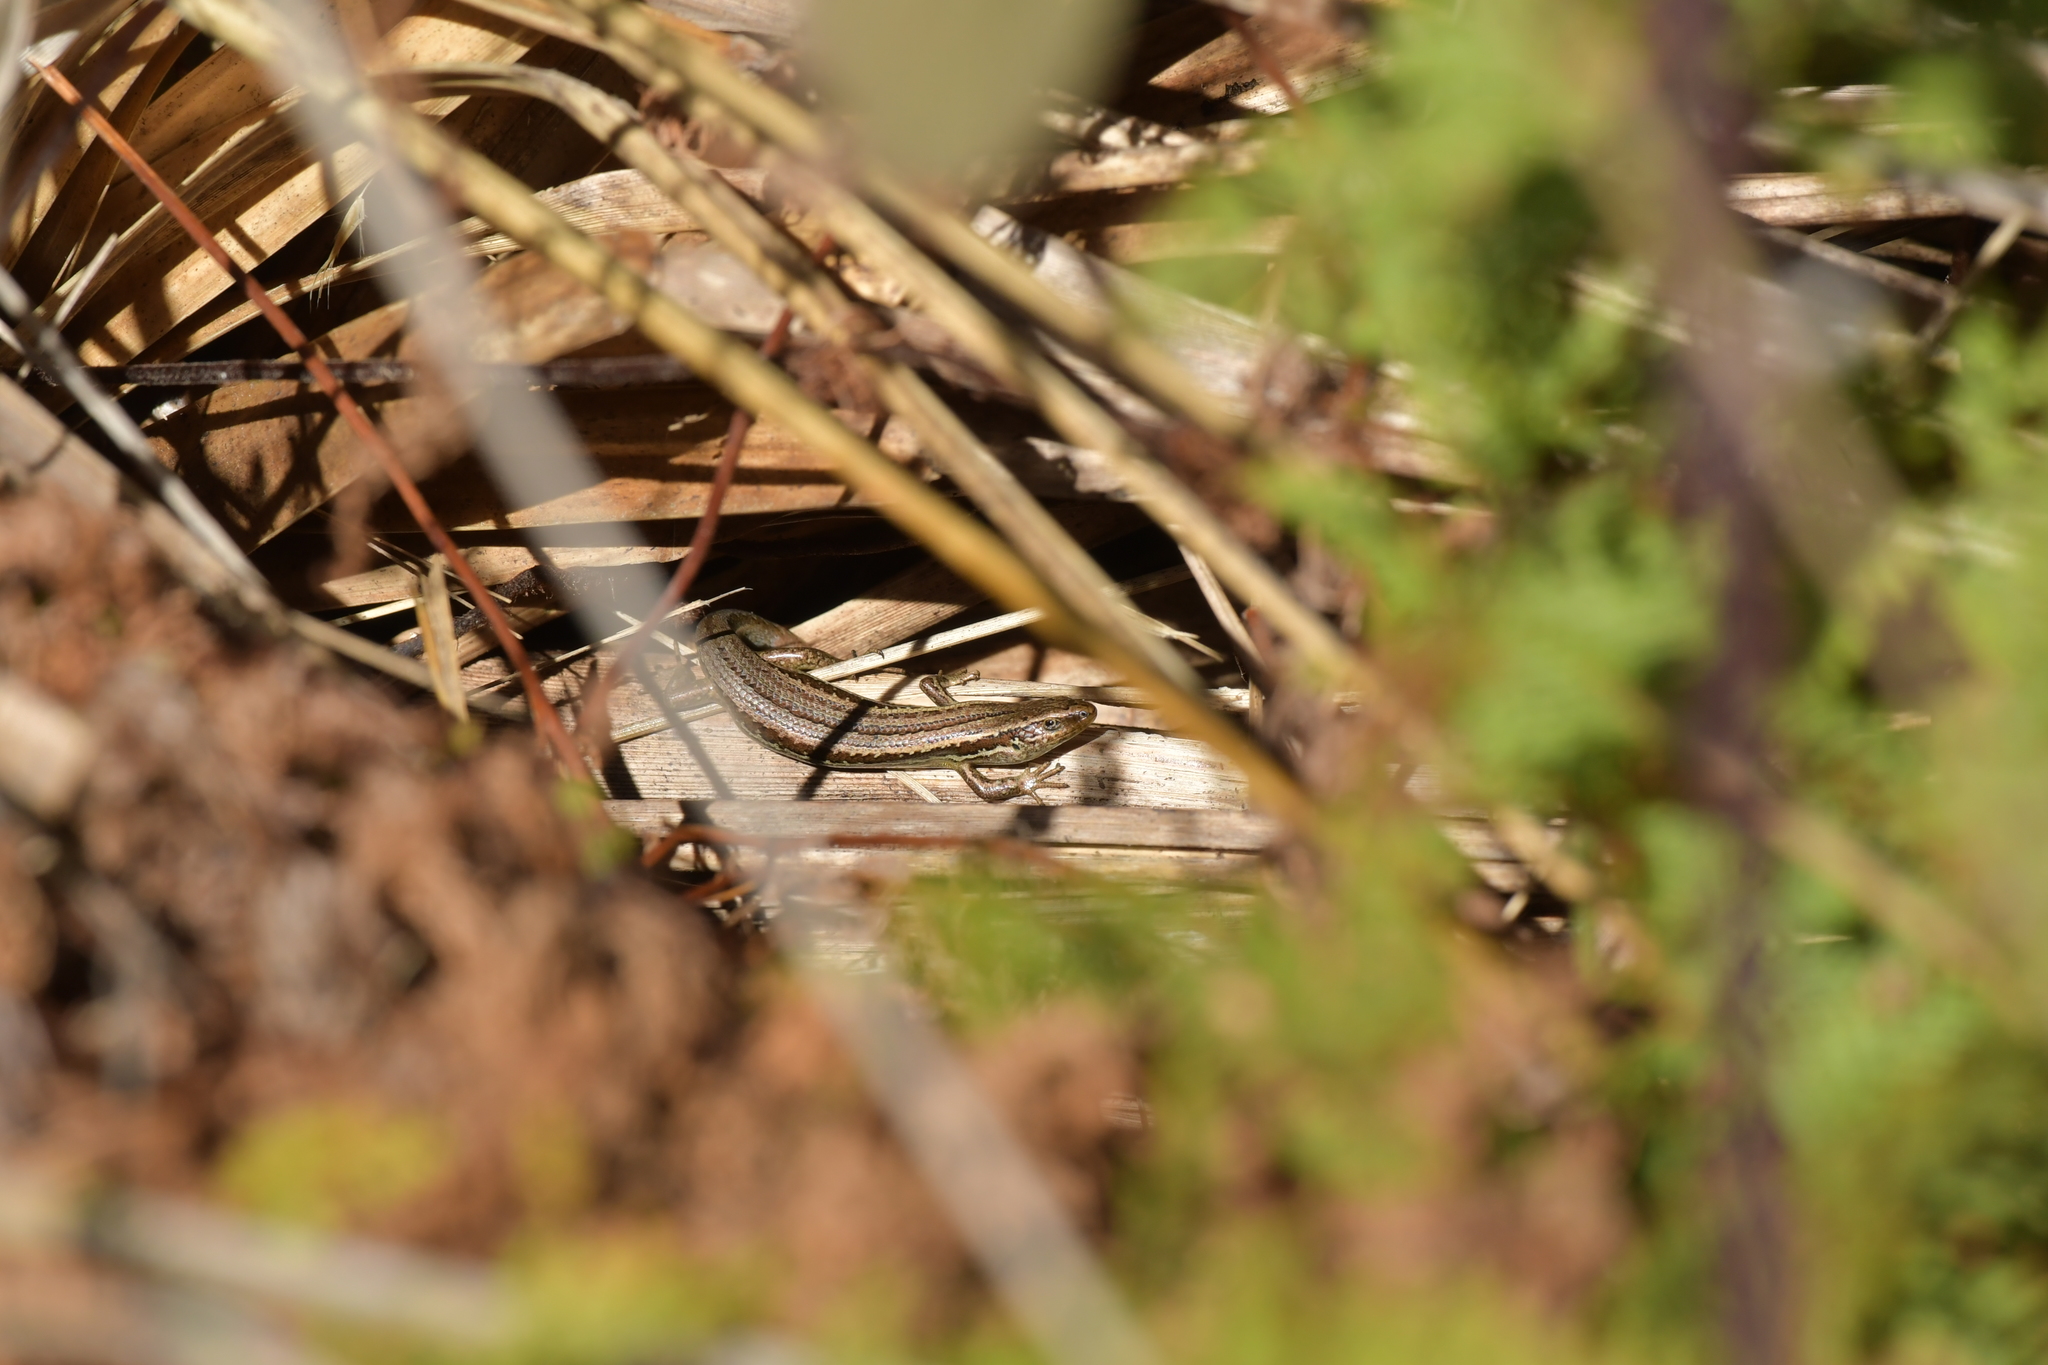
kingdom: Animalia
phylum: Chordata
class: Squamata
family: Scincidae
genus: Oligosoma
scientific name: Oligosoma polychroma
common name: Common new zealand skink
